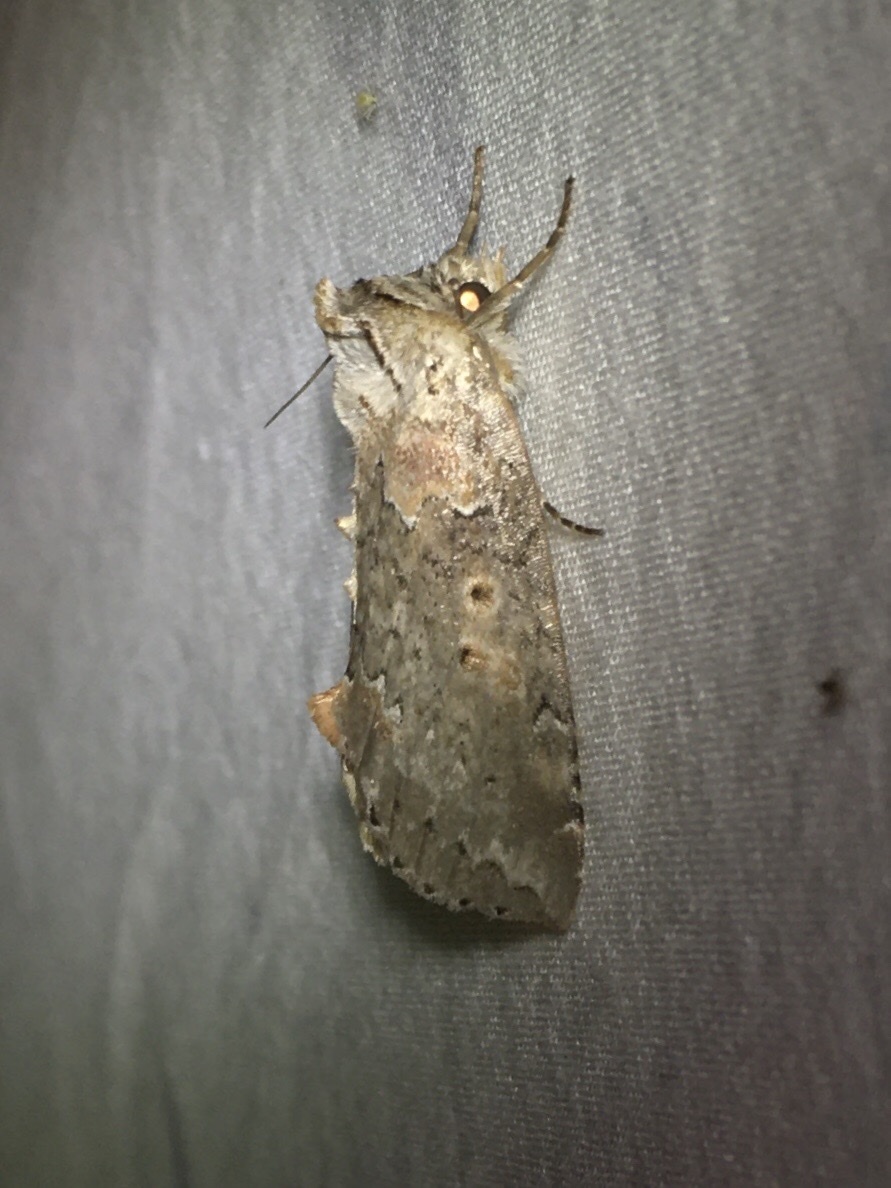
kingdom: Animalia
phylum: Arthropoda
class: Insecta
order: Lepidoptera
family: Drepanidae
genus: Pseudothyatira
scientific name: Pseudothyatira cymatophoroides
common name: Tufted thyatirid moth
